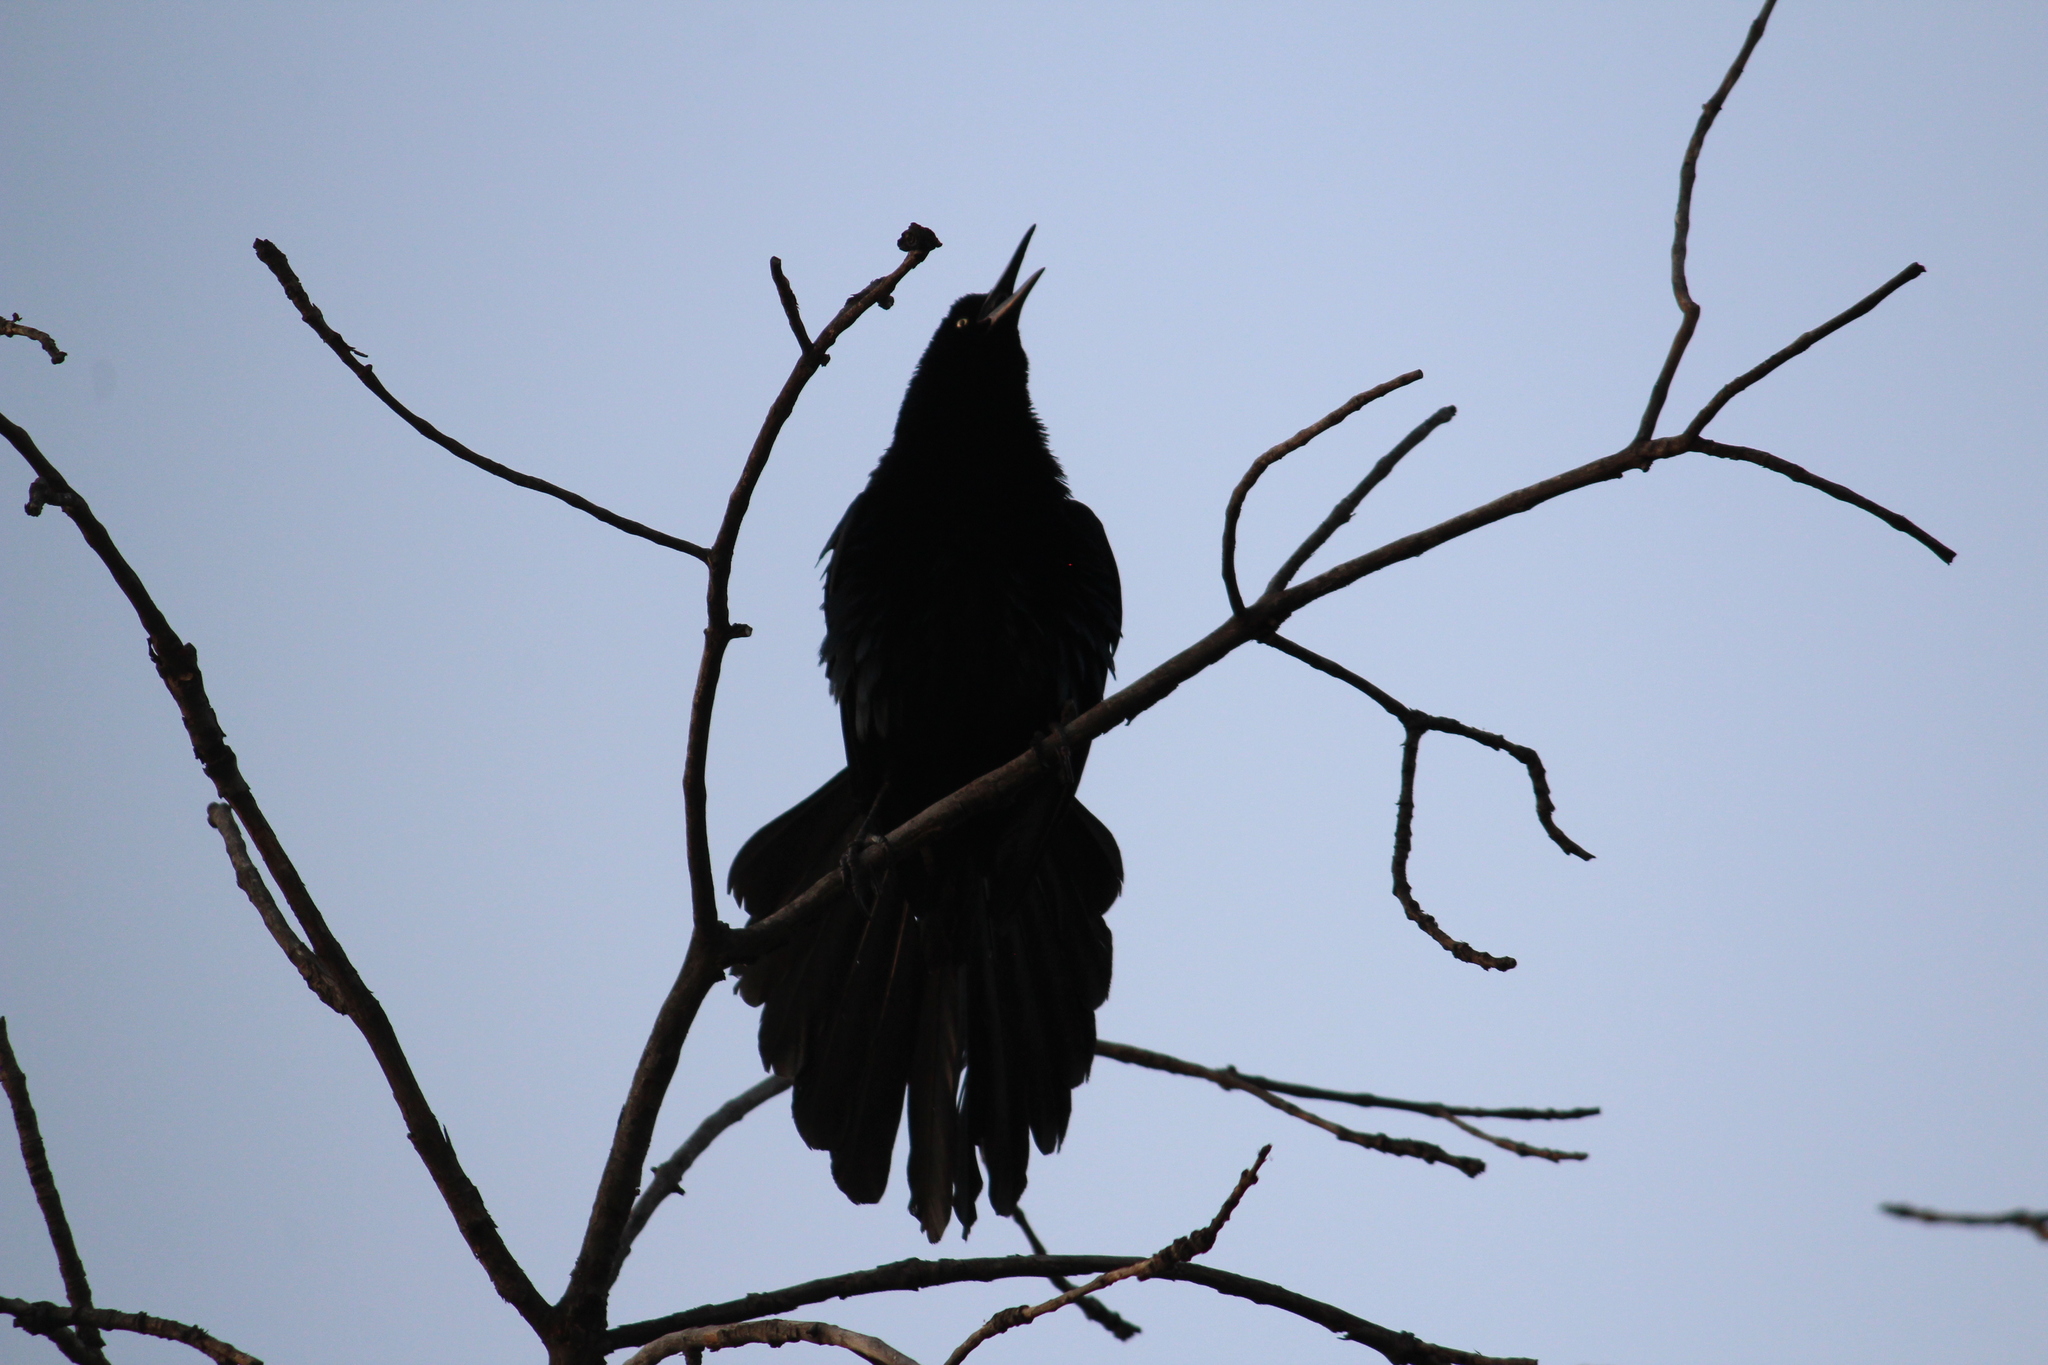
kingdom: Animalia
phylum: Chordata
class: Aves
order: Passeriformes
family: Icteridae
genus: Quiscalus
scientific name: Quiscalus mexicanus
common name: Great-tailed grackle
